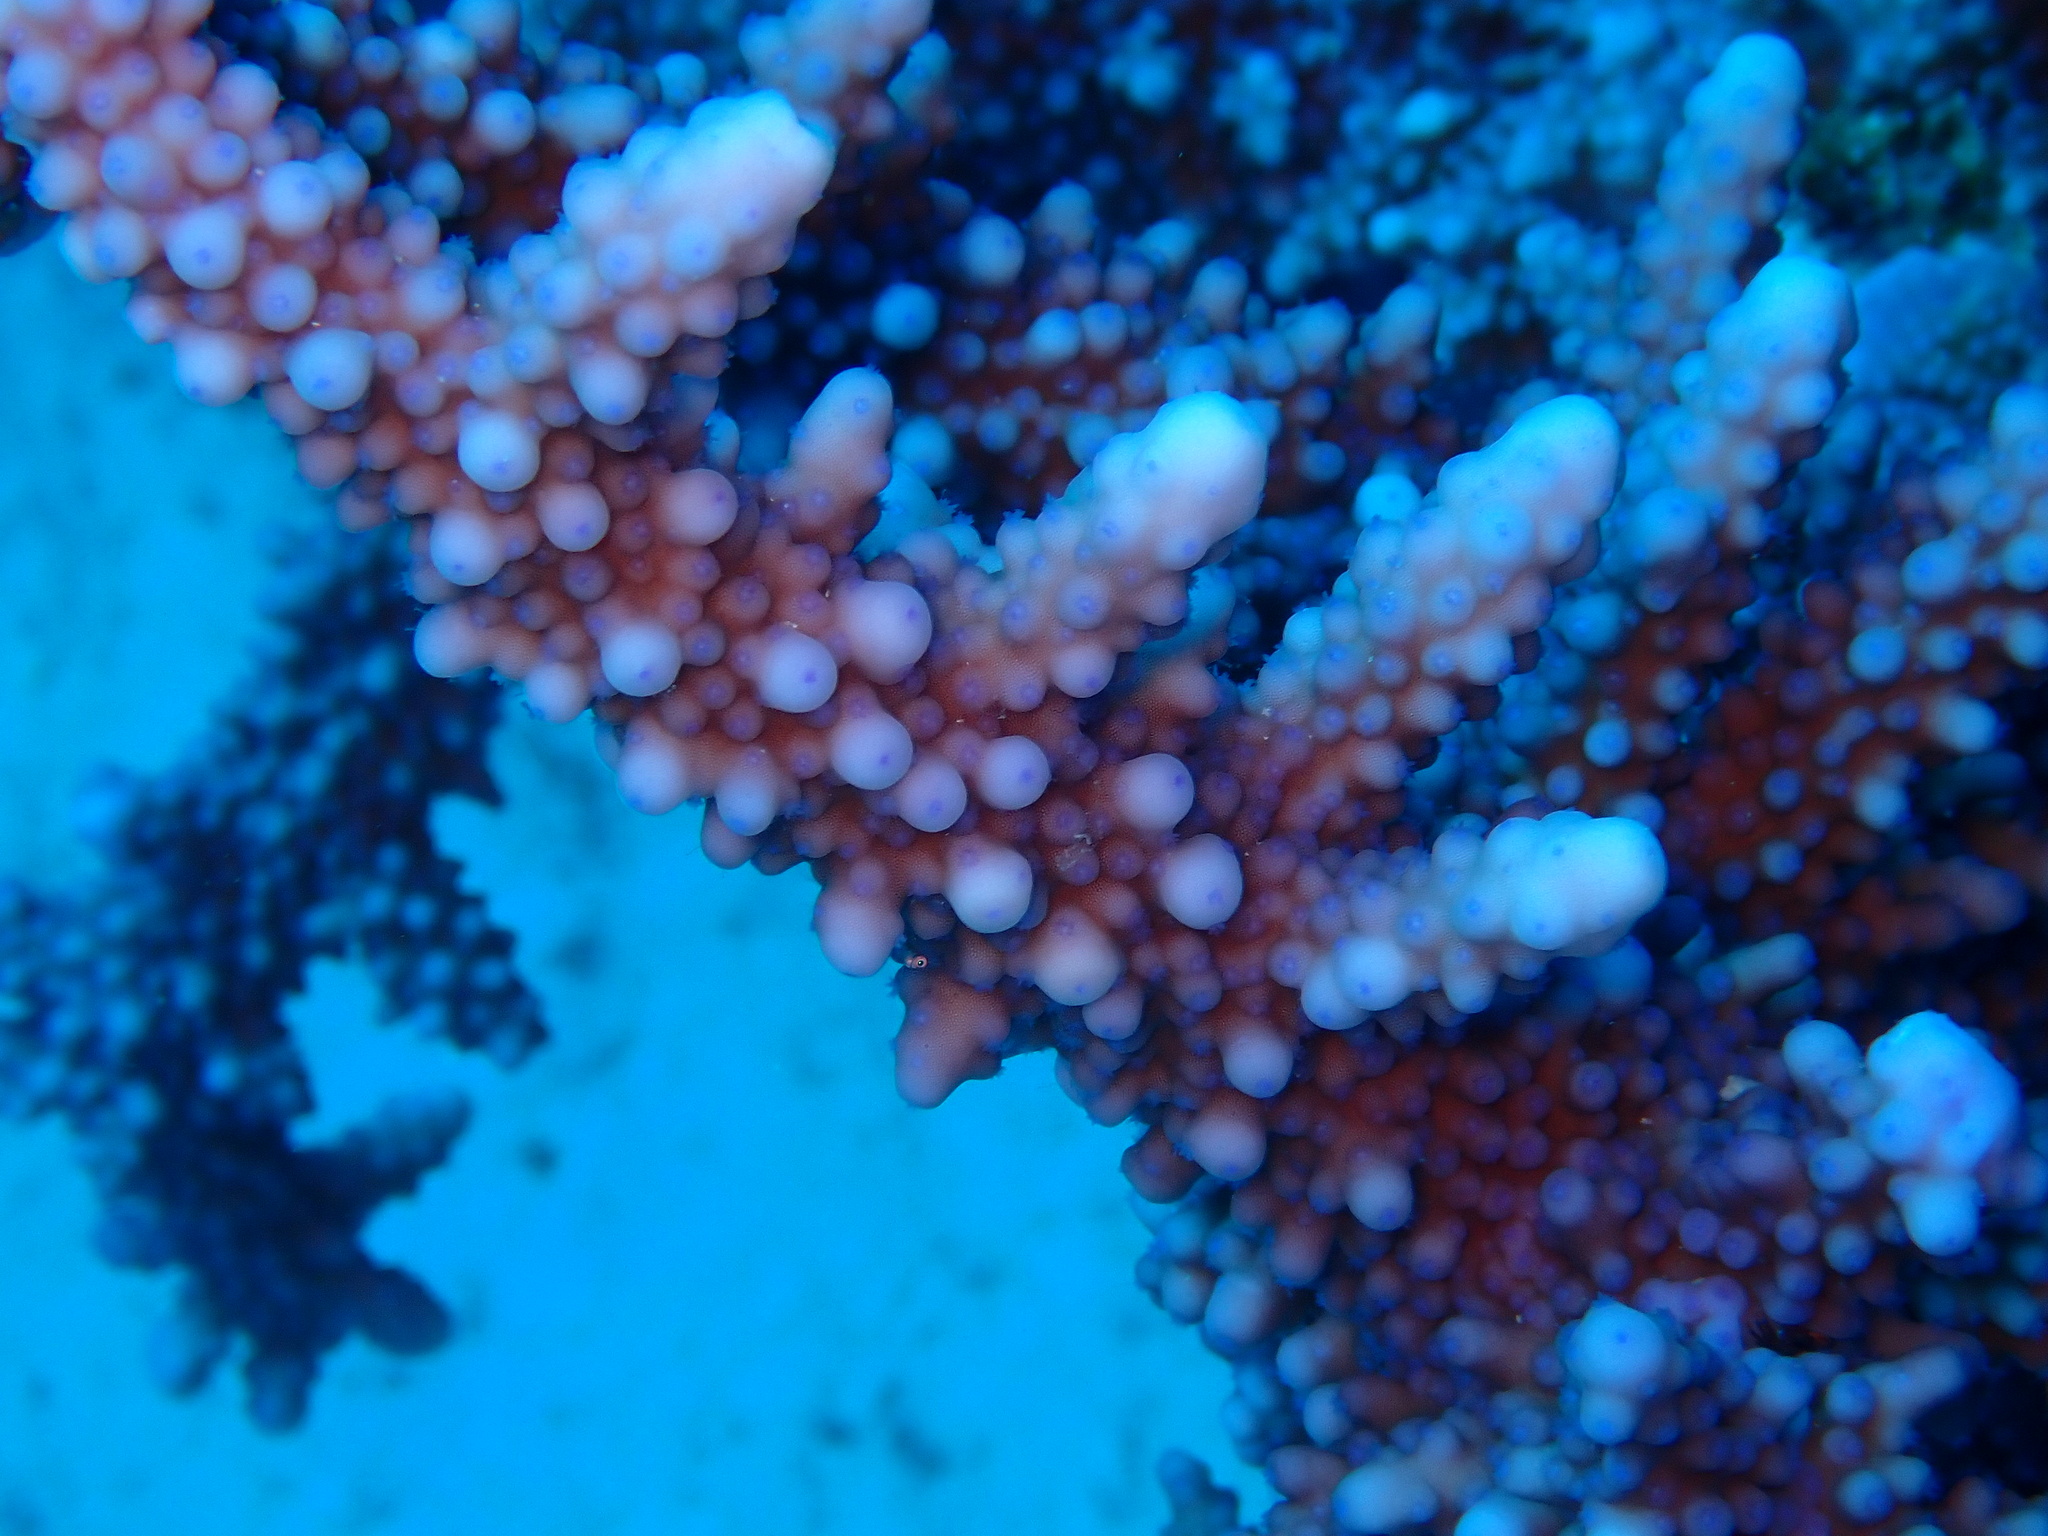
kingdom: Animalia
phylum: Cnidaria
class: Anthozoa
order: Scleractinia
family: Acroporidae
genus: Acropora
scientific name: Acropora hemprichii
